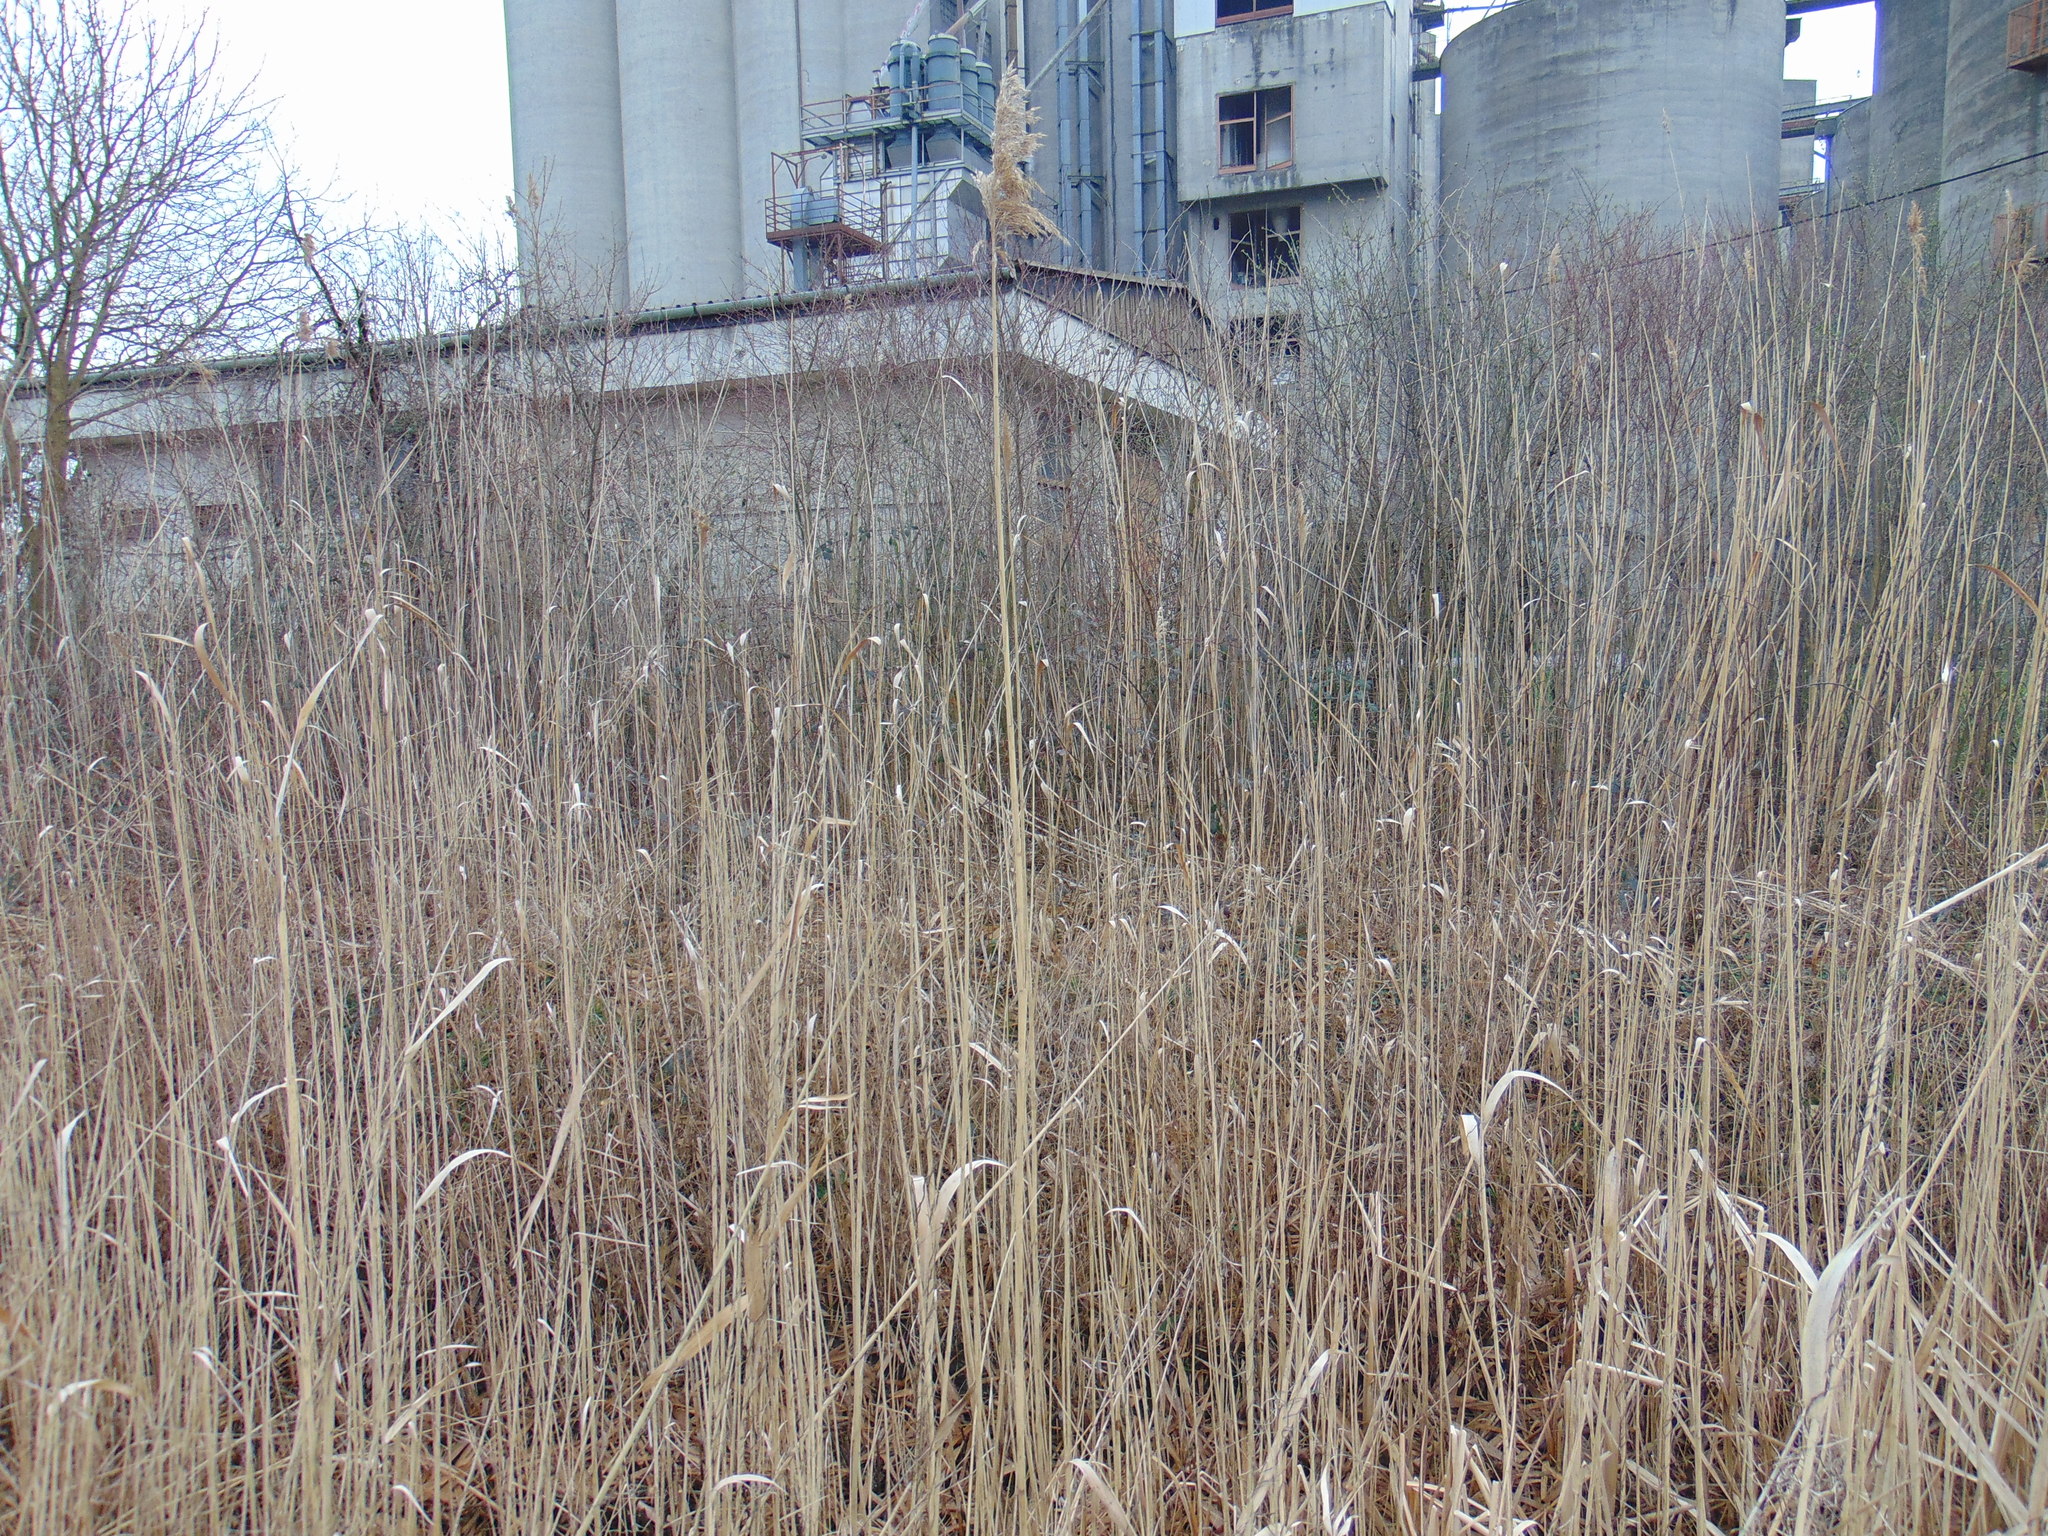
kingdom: Plantae
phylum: Tracheophyta
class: Liliopsida
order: Poales
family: Poaceae
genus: Phragmites
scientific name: Phragmites australis
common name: Common reed
